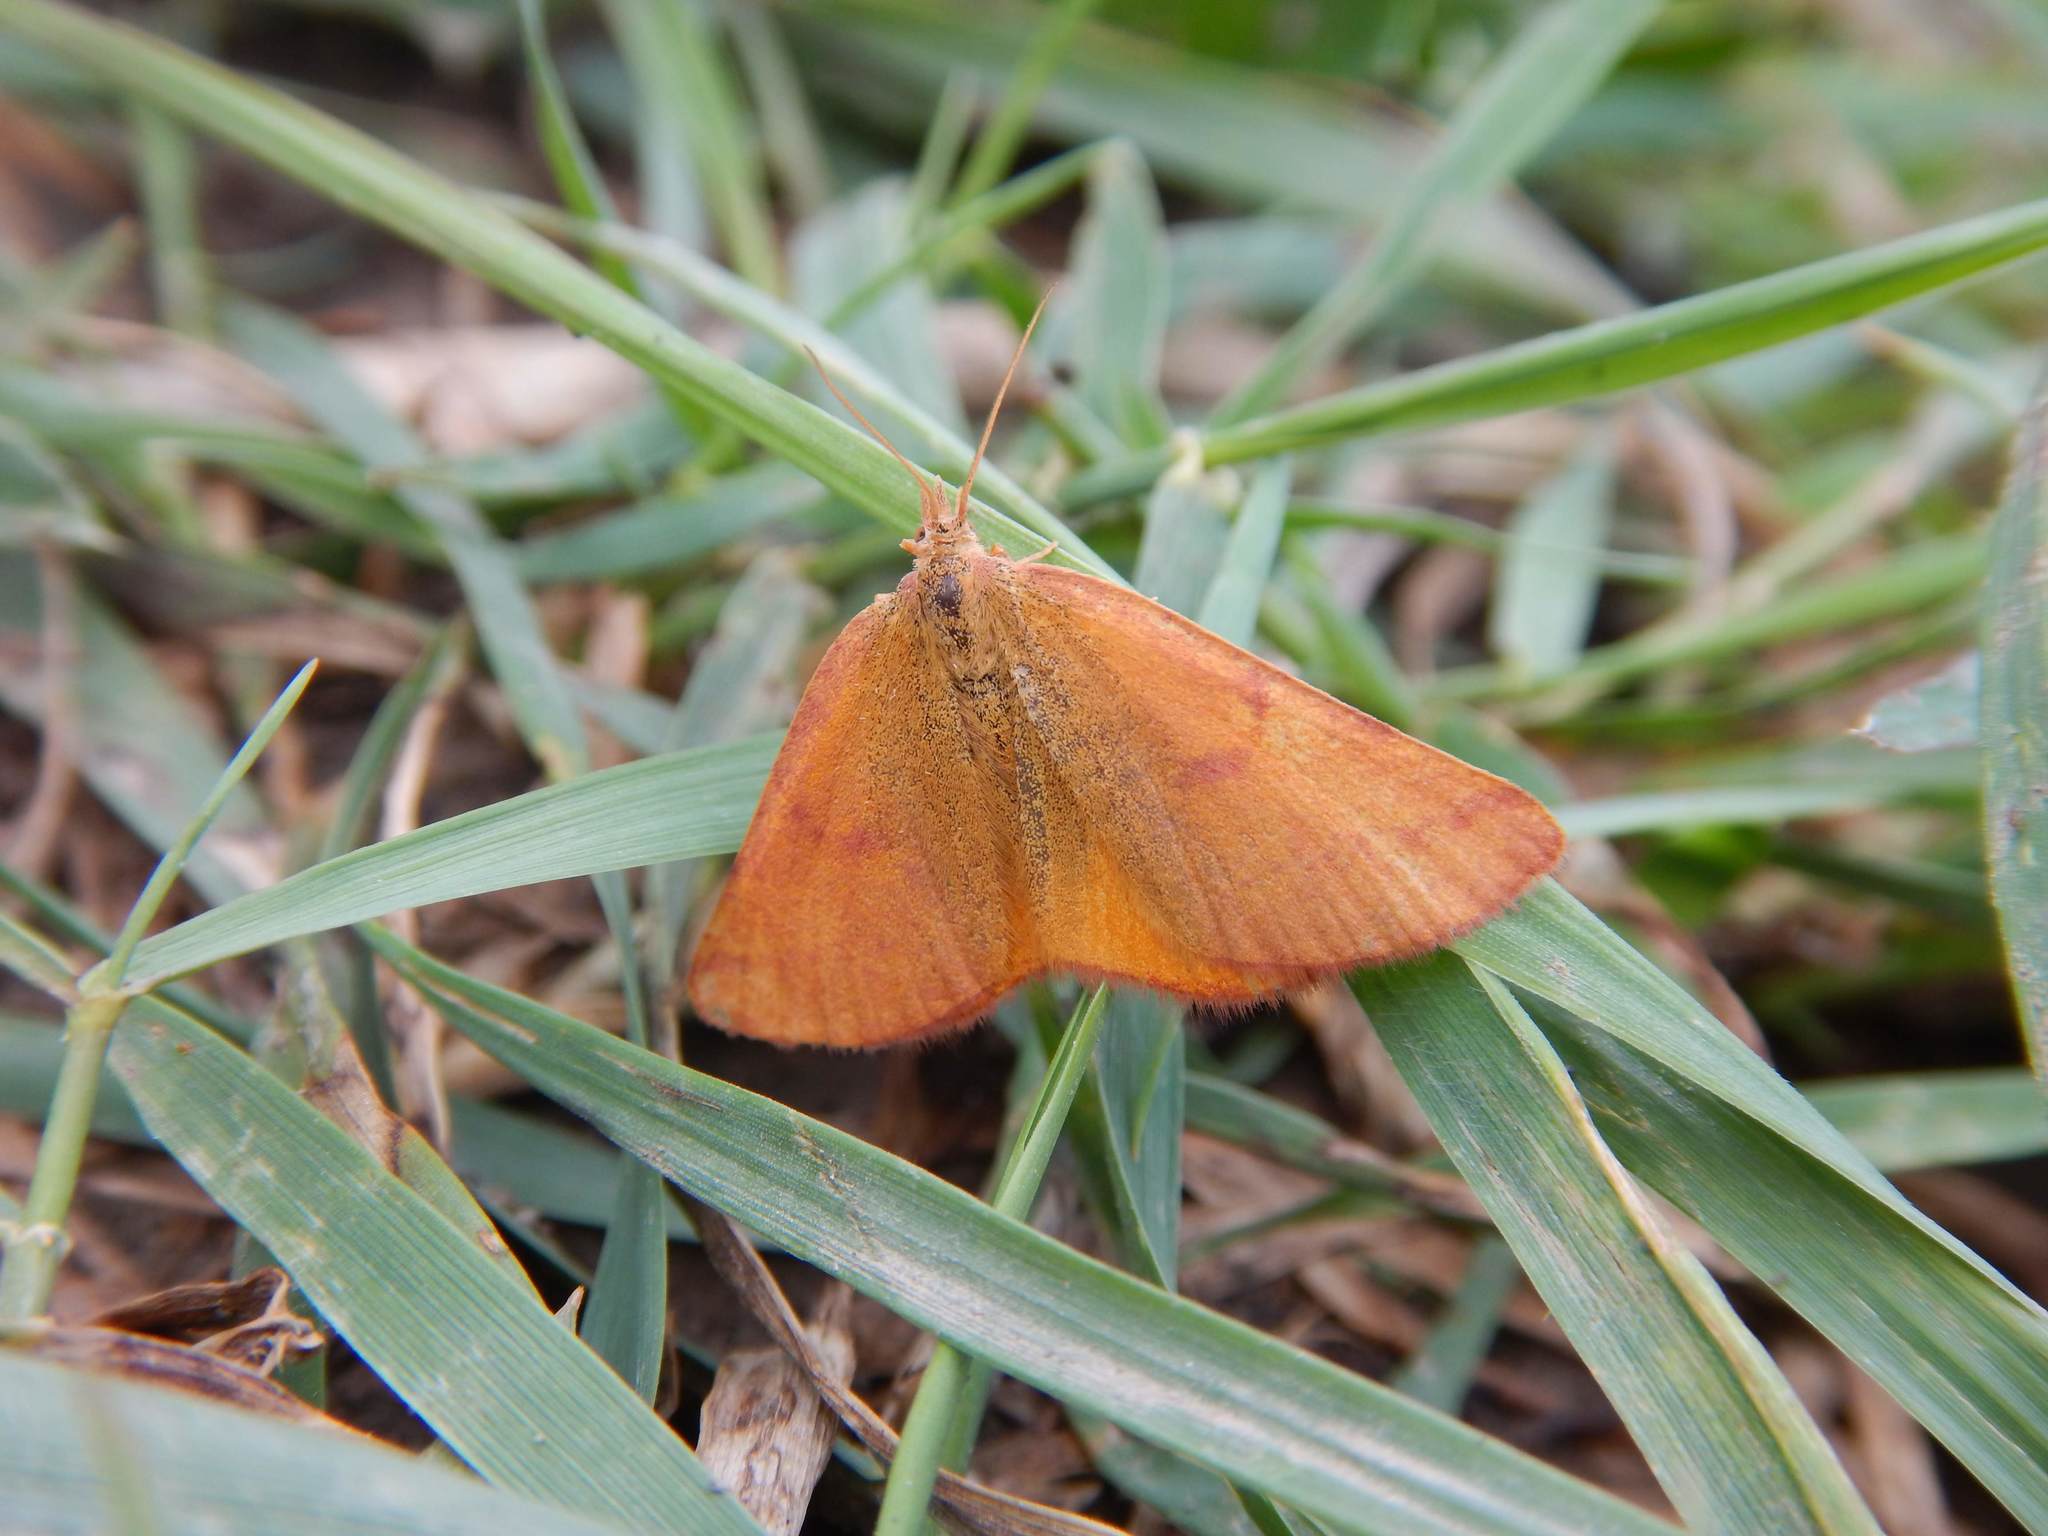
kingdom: Animalia
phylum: Arthropoda
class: Insecta
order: Lepidoptera
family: Geometridae
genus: Lythria
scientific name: Lythria purpuraria
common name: Purple-barred yellow
